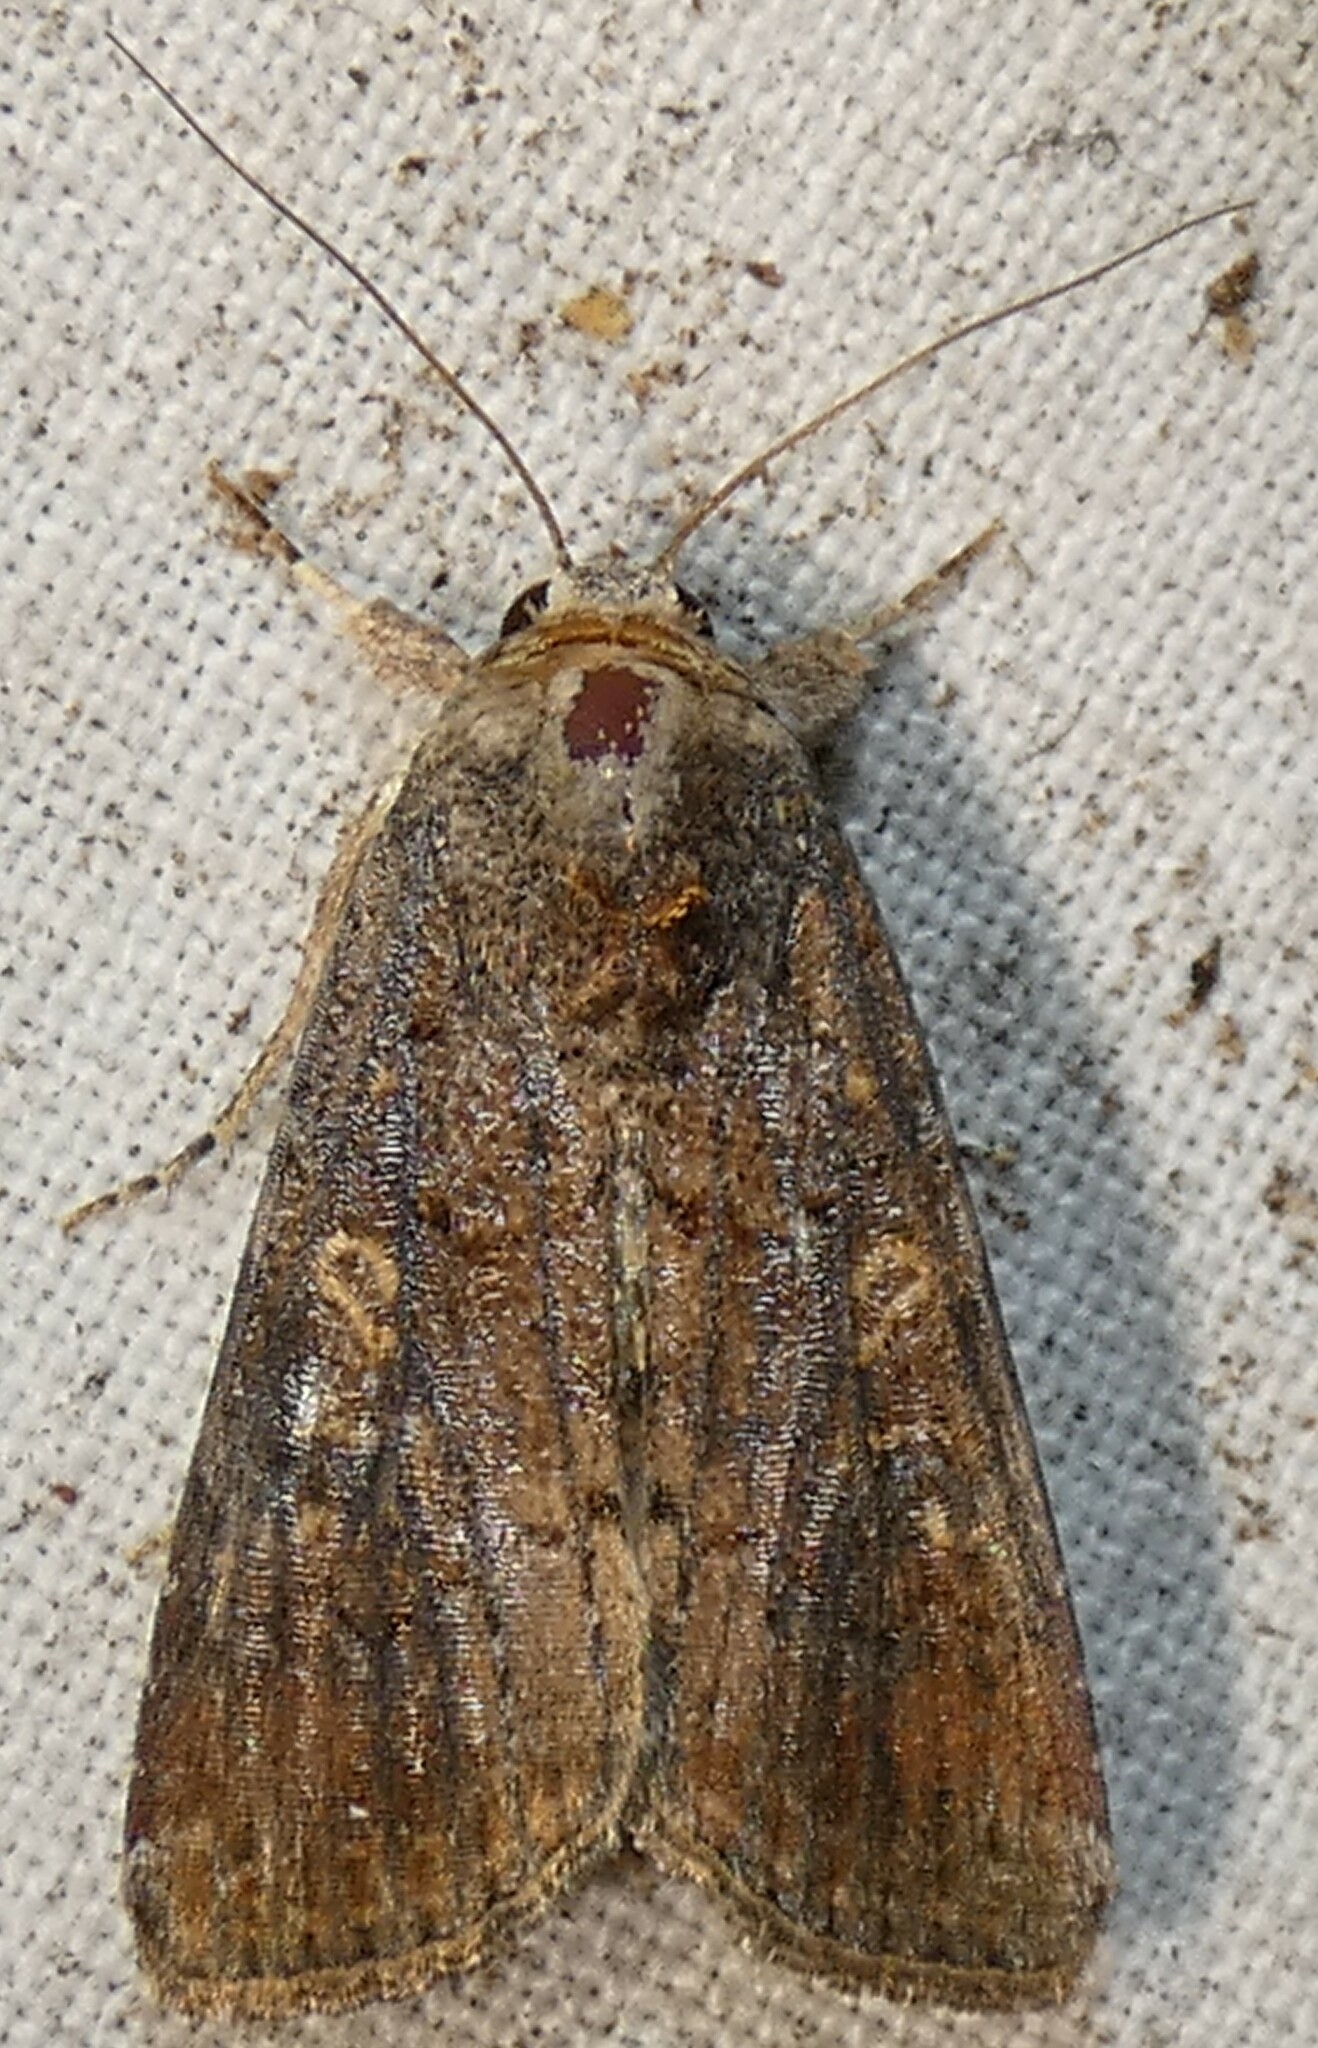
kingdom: Animalia
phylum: Arthropoda
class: Insecta
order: Lepidoptera
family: Noctuidae
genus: Spodoptera
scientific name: Spodoptera frugiperda
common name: Fall armyworm
